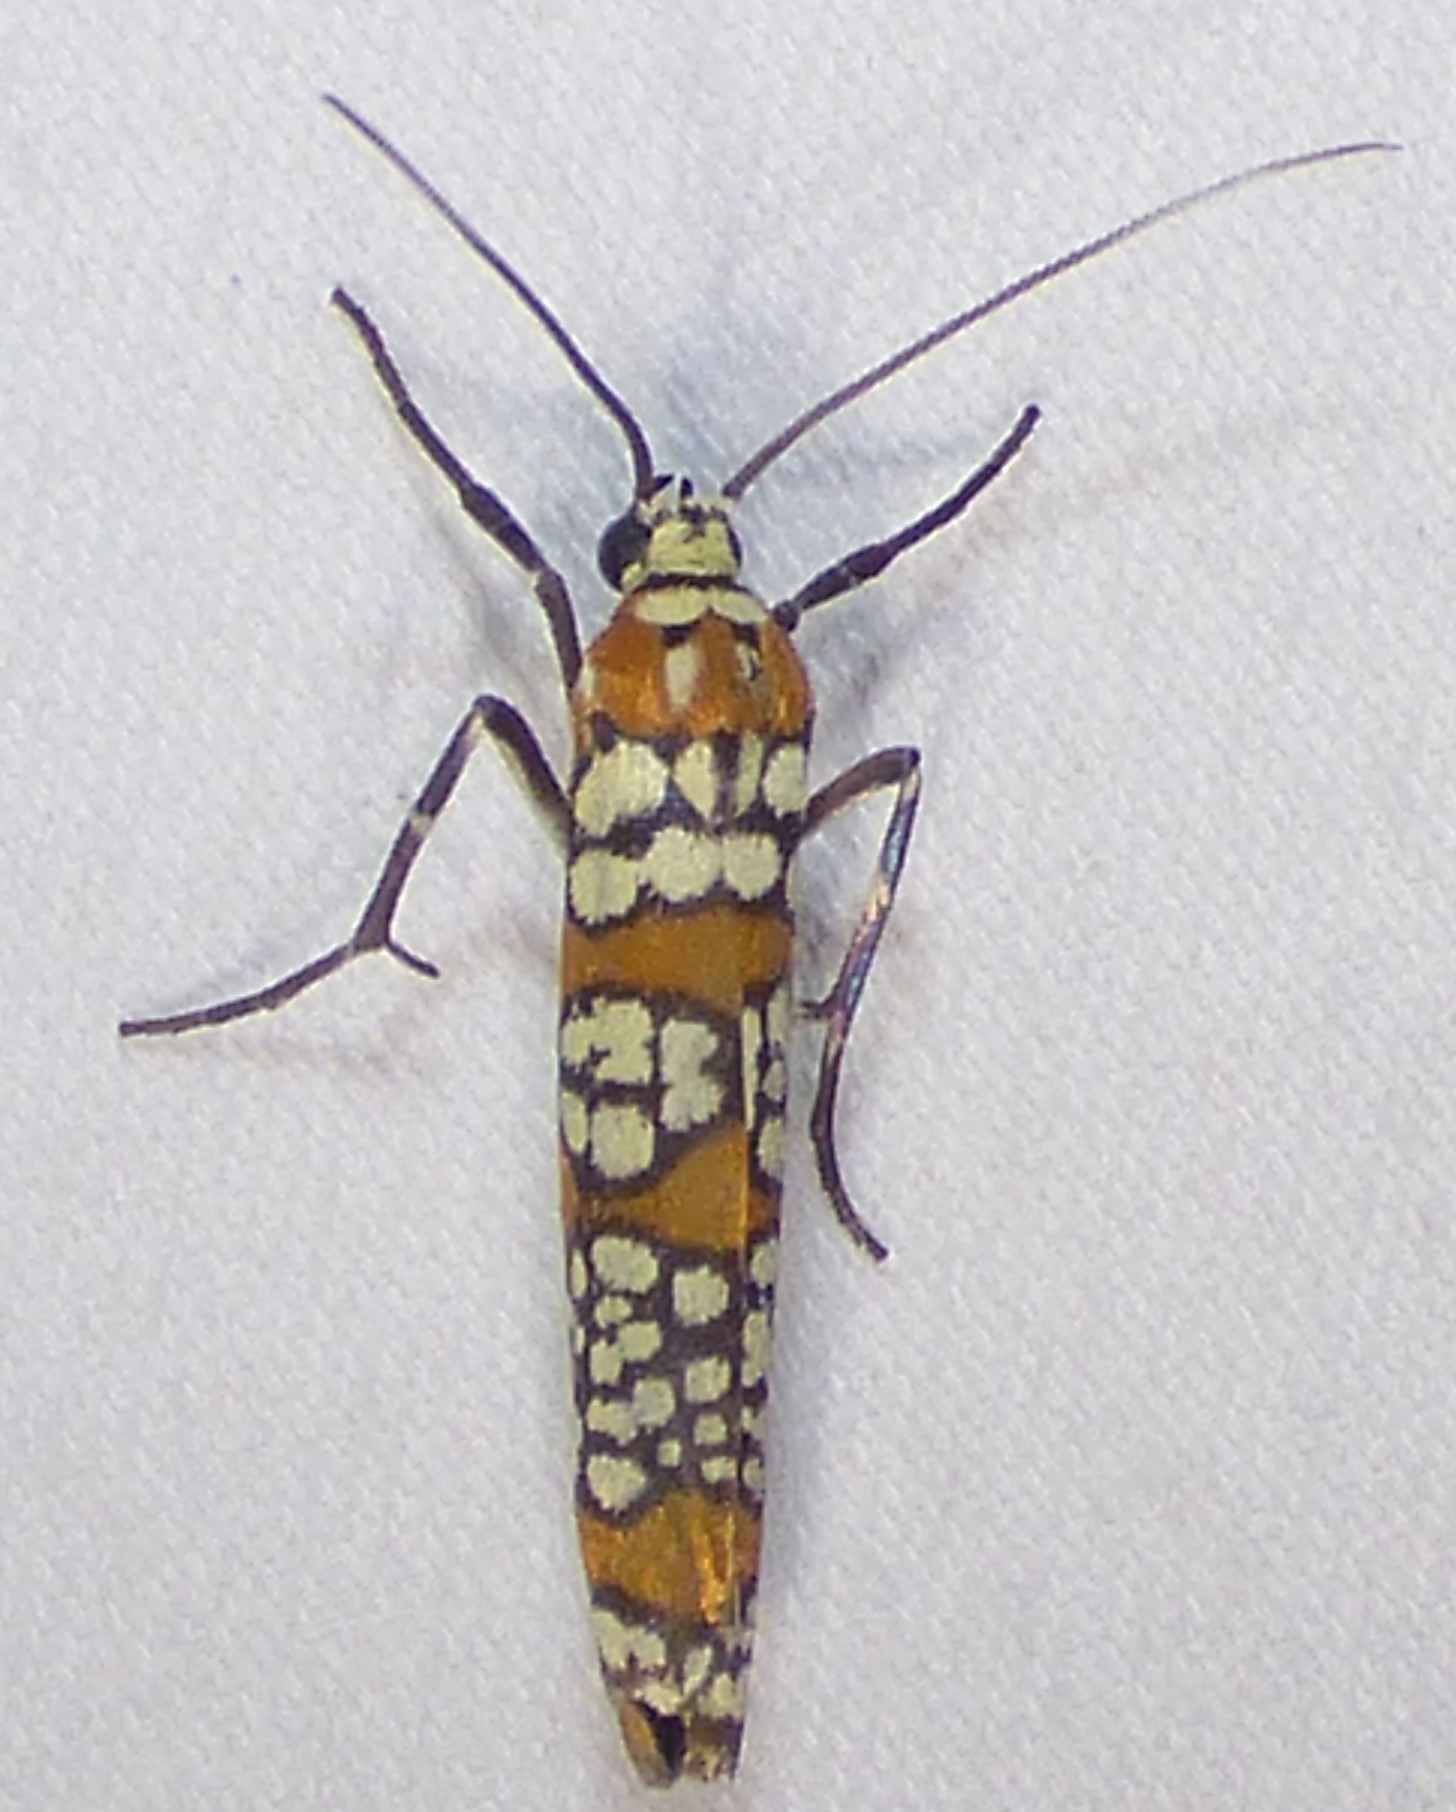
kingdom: Animalia
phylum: Arthropoda
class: Insecta
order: Lepidoptera
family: Attevidae
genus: Atteva
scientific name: Atteva punctella
